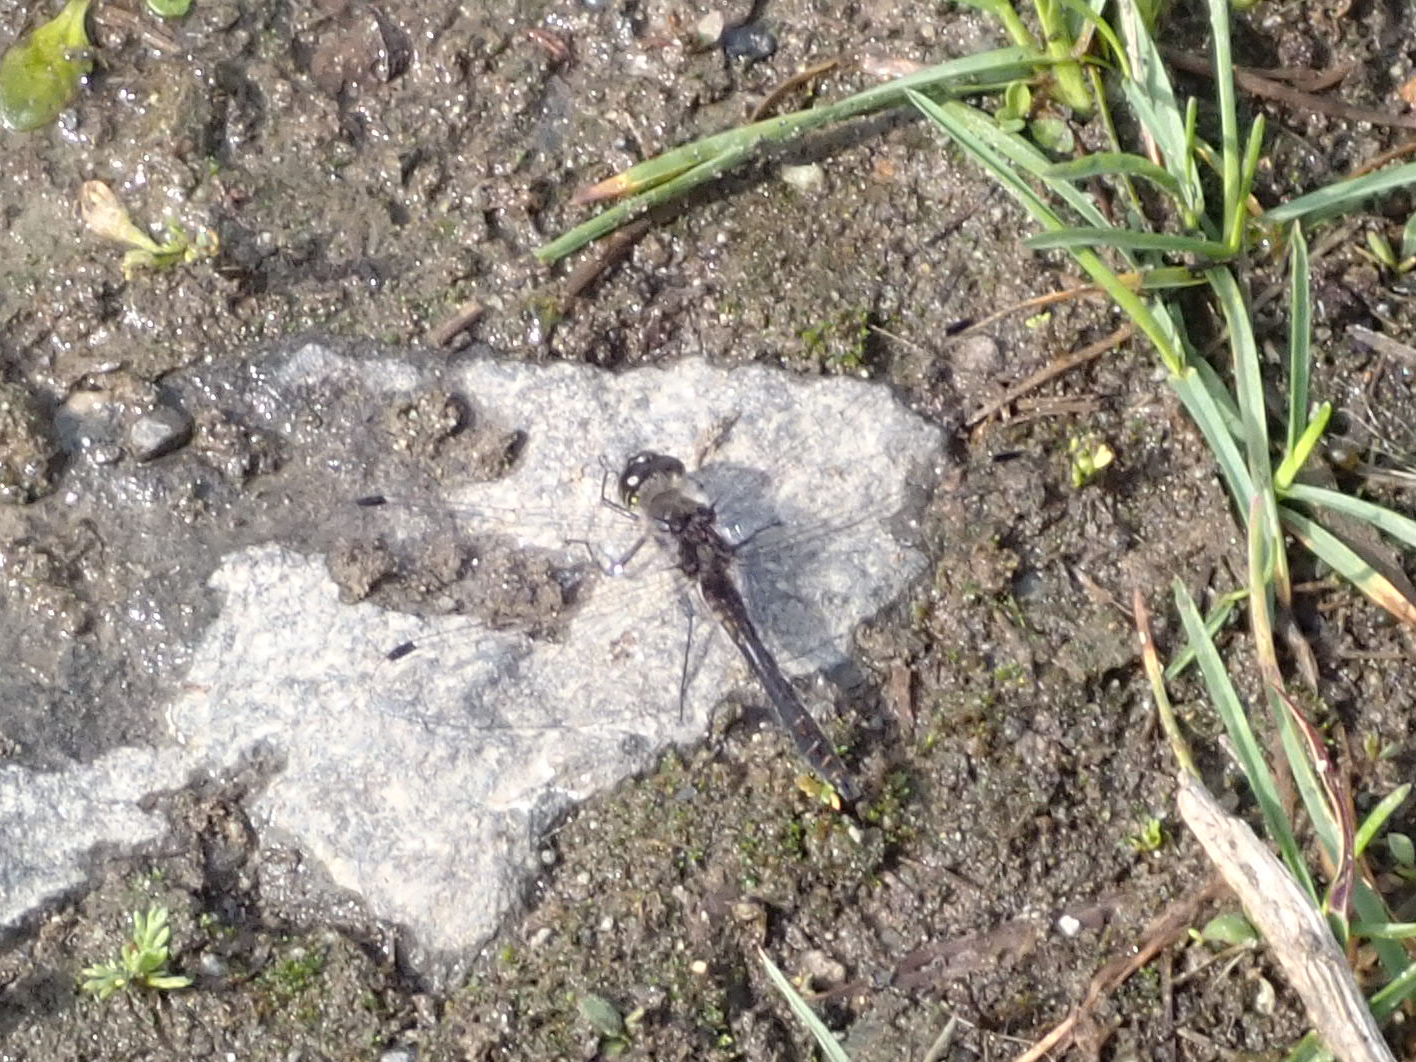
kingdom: Animalia
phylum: Arthropoda
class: Insecta
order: Odonata
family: Libellulidae
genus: Sympetrum
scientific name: Sympetrum danae
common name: Black darter
